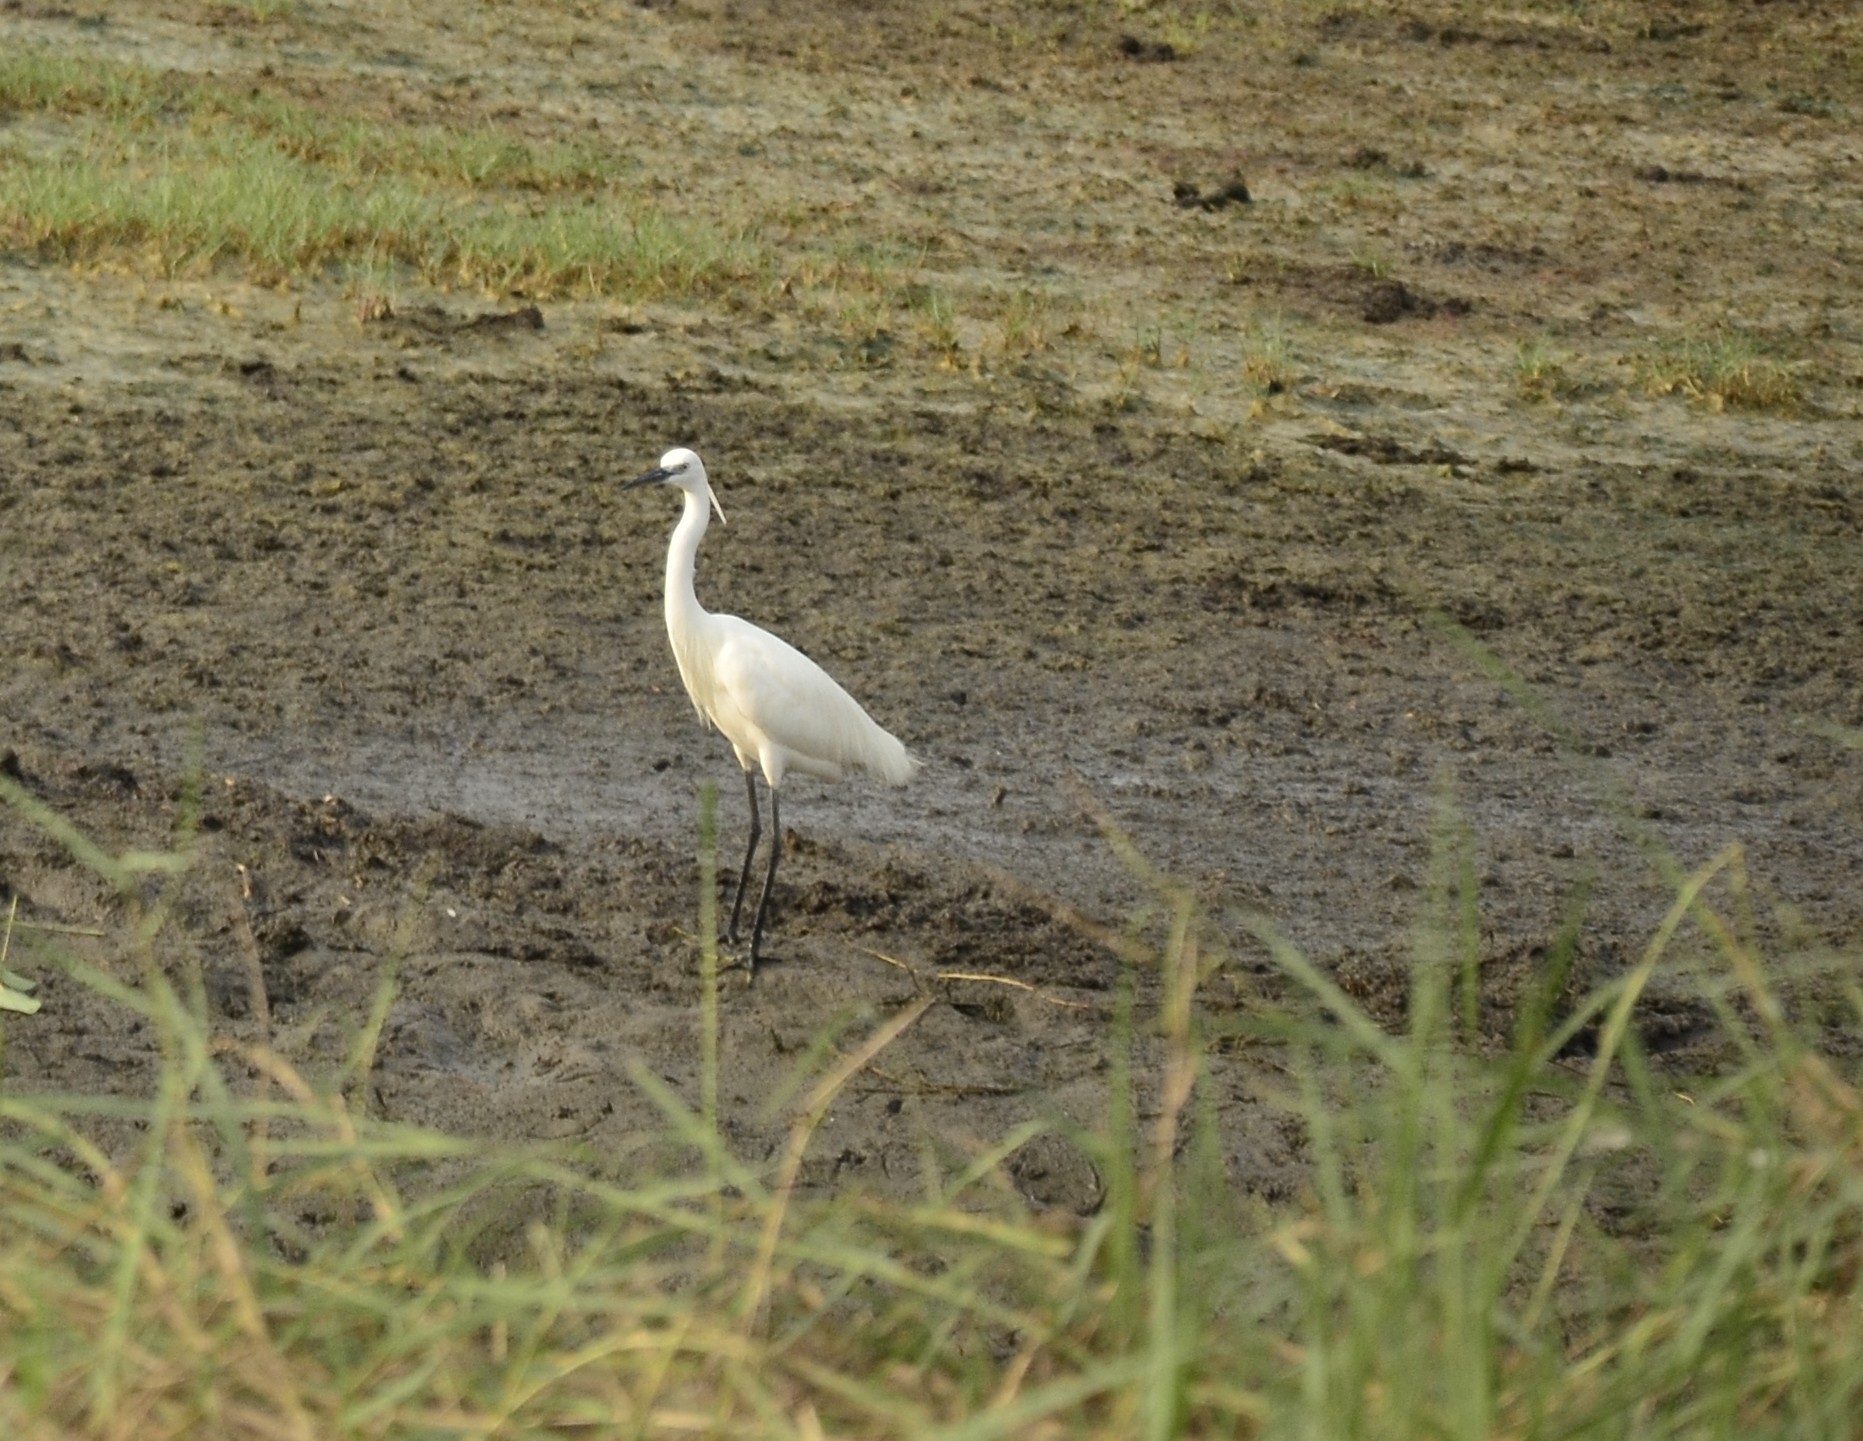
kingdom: Animalia
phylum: Chordata
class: Aves
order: Pelecaniformes
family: Ardeidae
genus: Egretta
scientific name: Egretta garzetta
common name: Little egret
